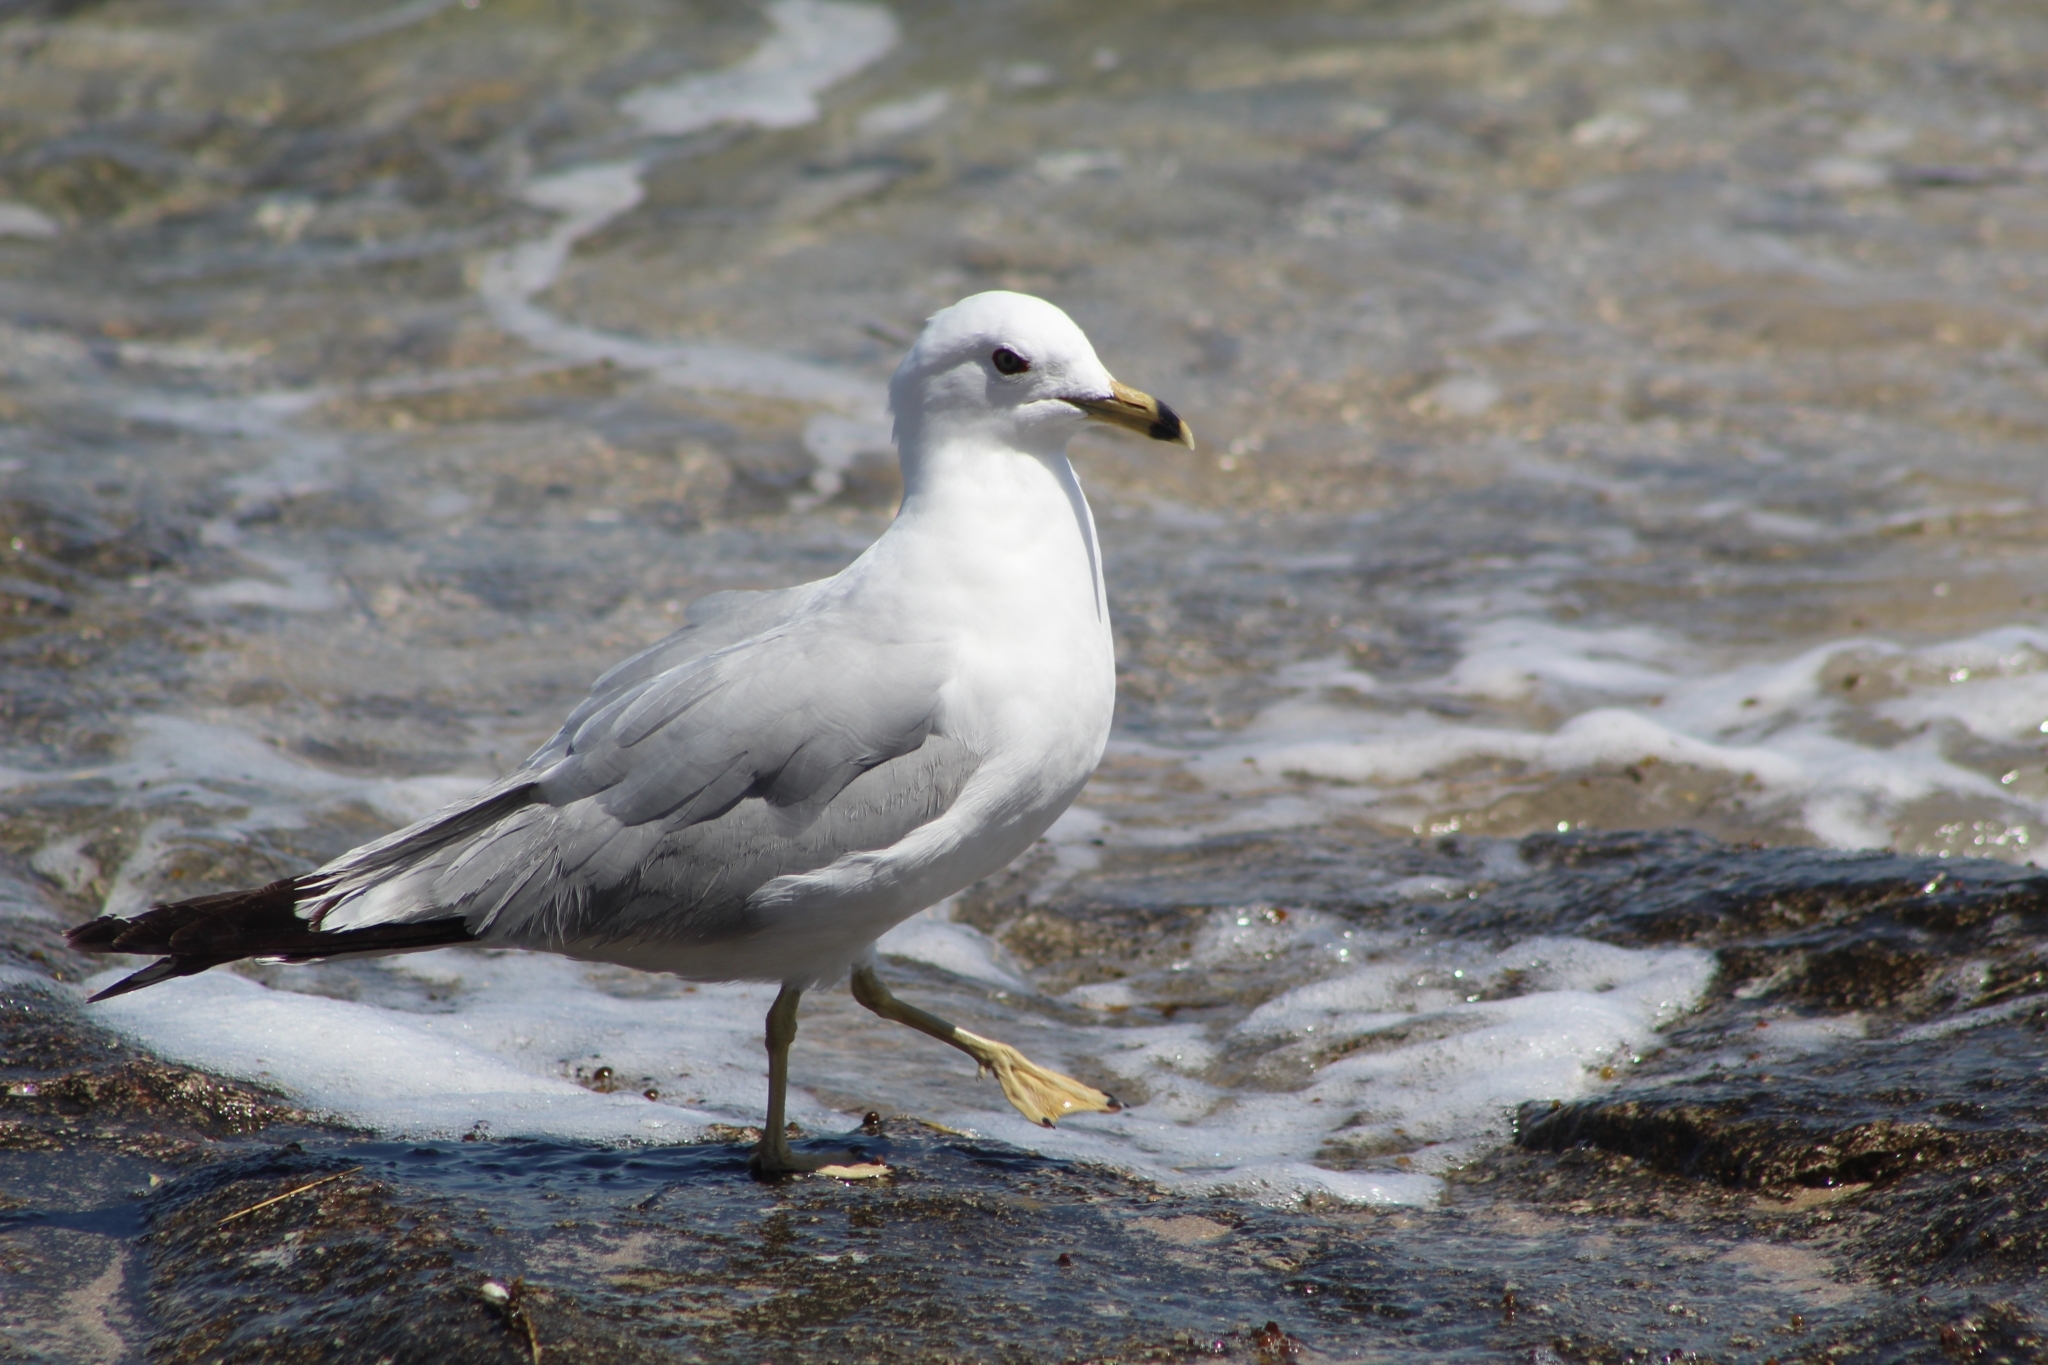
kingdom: Animalia
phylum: Chordata
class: Aves
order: Charadriiformes
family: Laridae
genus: Larus
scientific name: Larus delawarensis
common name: Ring-billed gull
